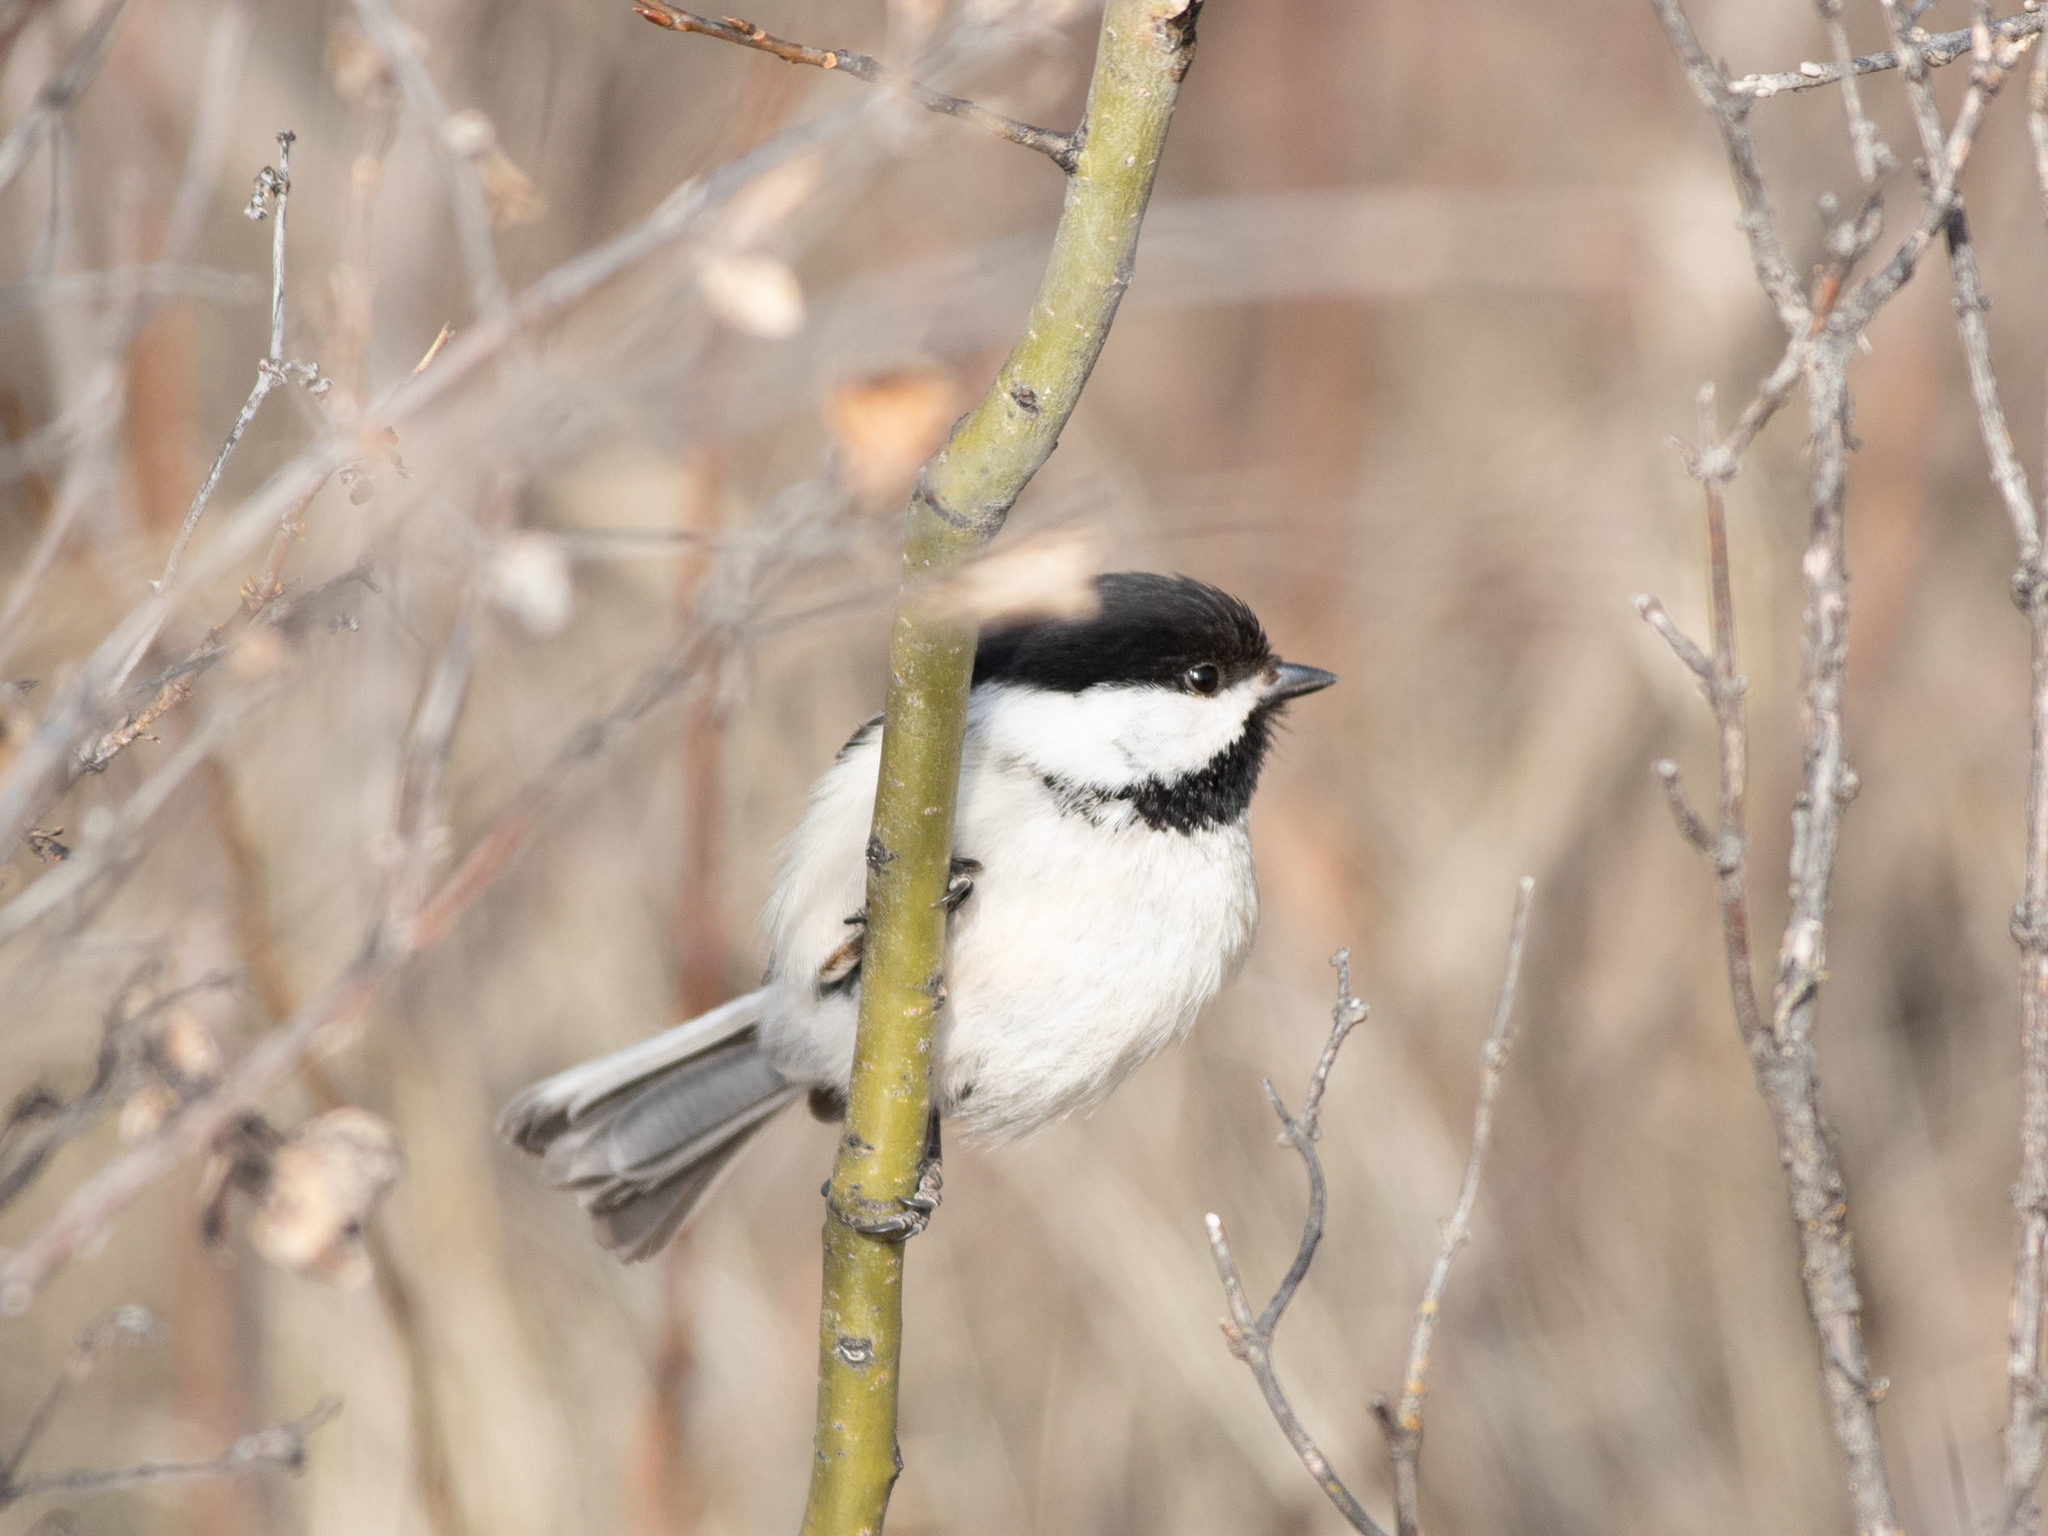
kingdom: Animalia
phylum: Chordata
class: Aves
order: Passeriformes
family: Paridae
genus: Poecile
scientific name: Poecile atricapillus
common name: Black-capped chickadee
